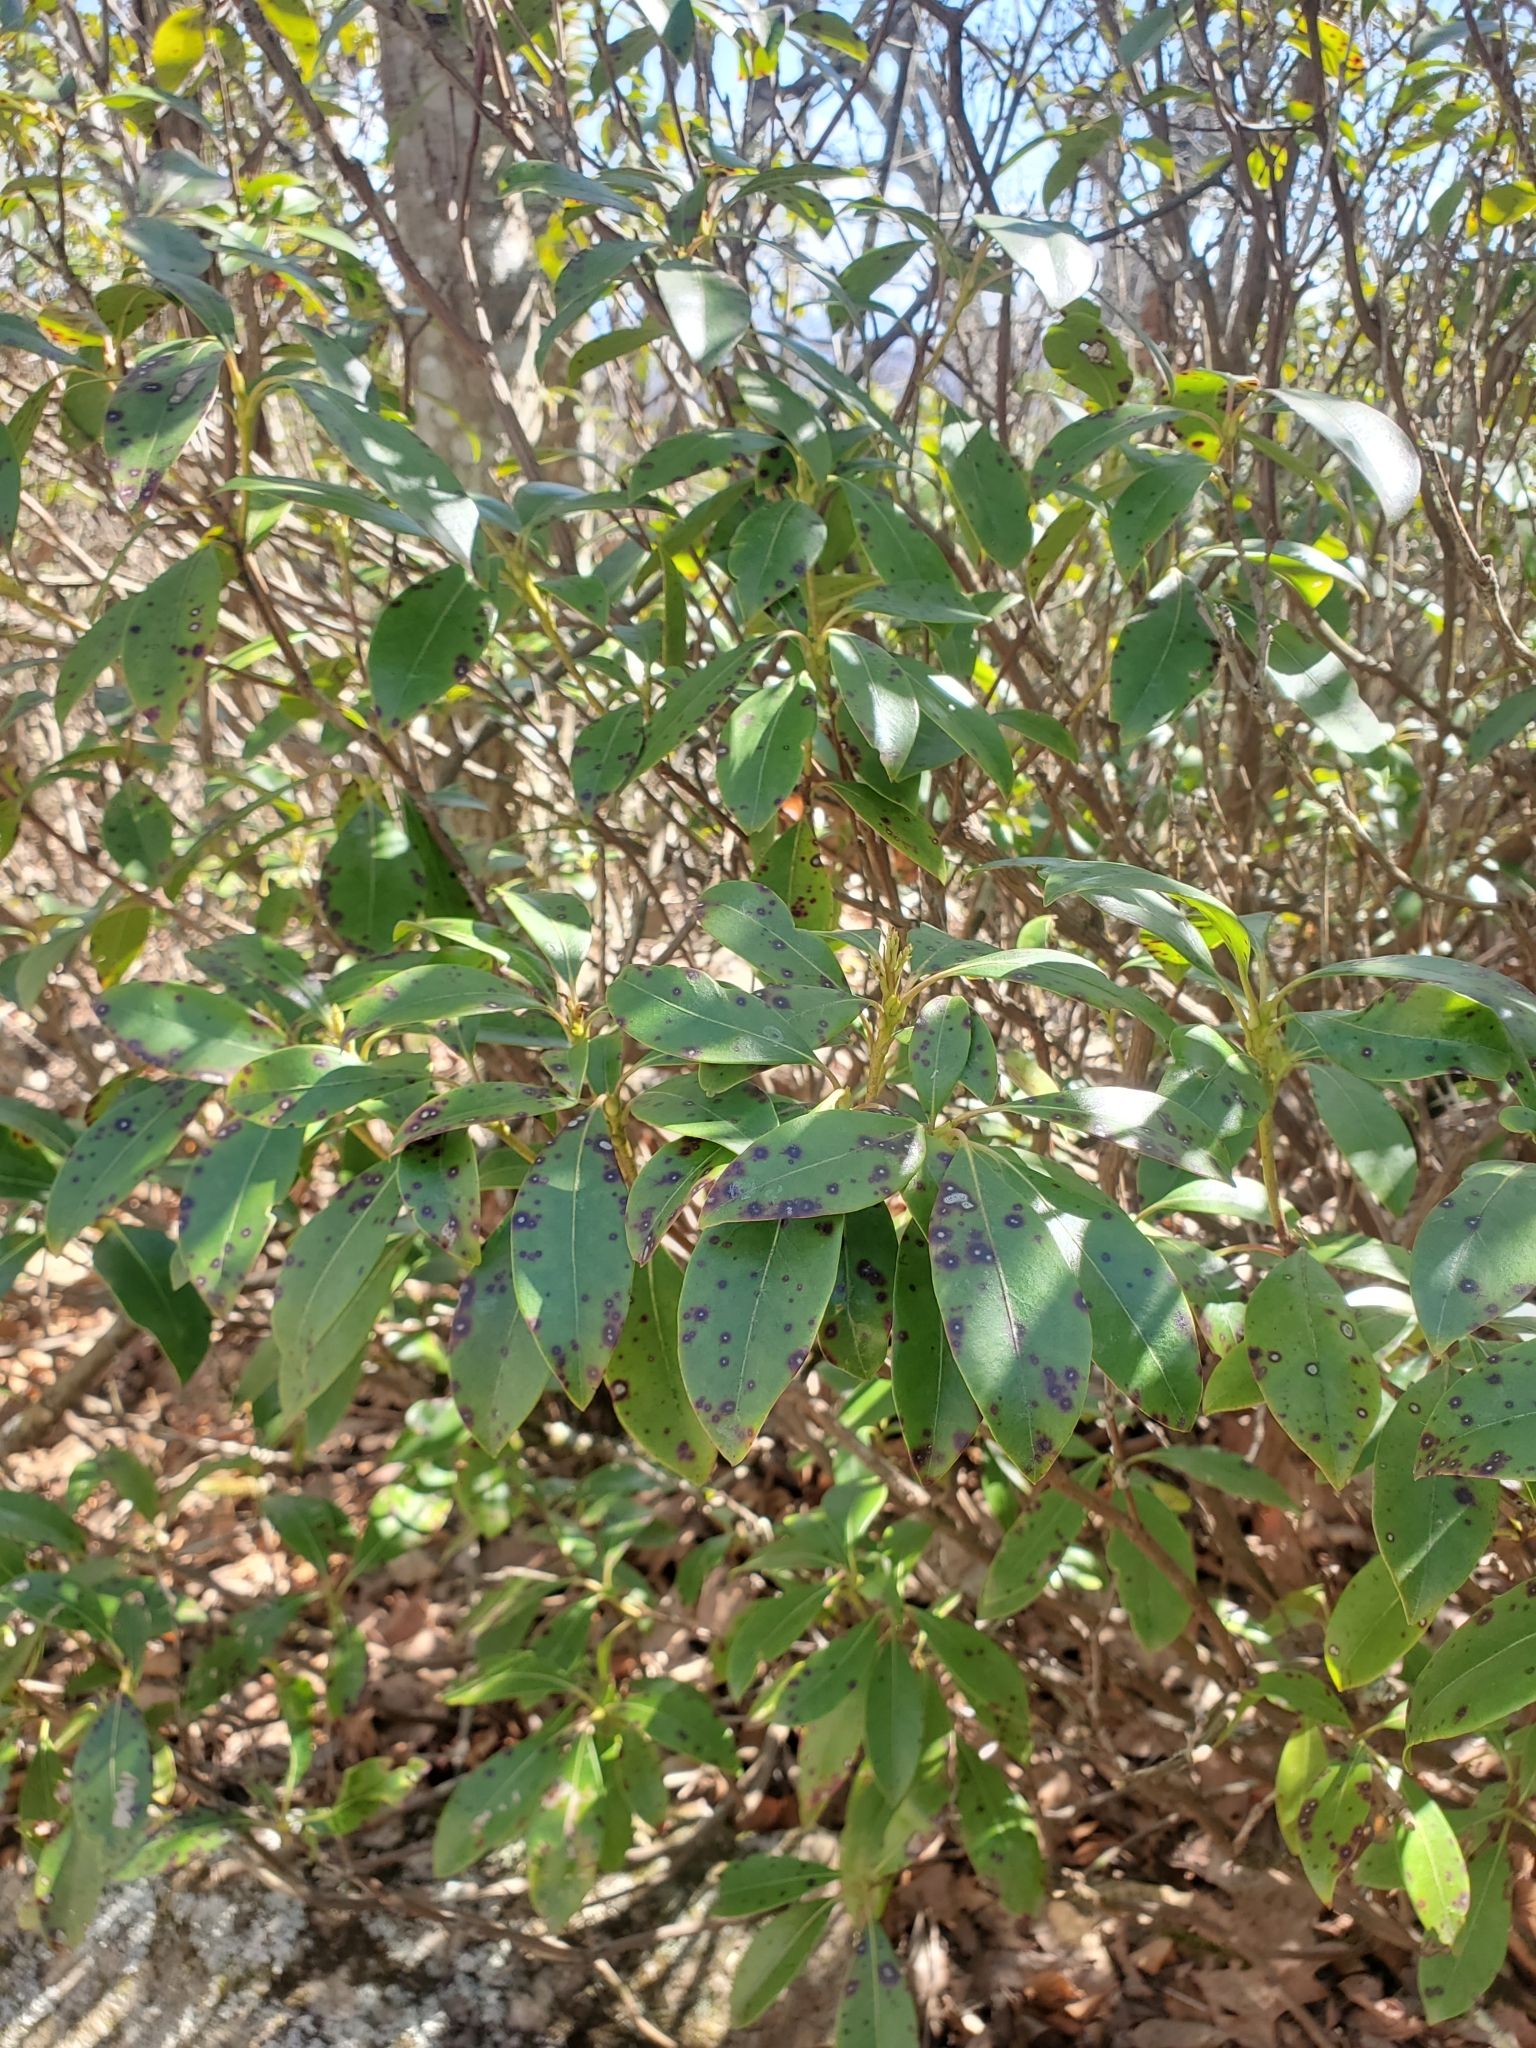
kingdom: Plantae
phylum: Tracheophyta
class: Magnoliopsida
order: Ericales
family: Ericaceae
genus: Kalmia
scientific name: Kalmia latifolia
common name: Mountain-laurel
